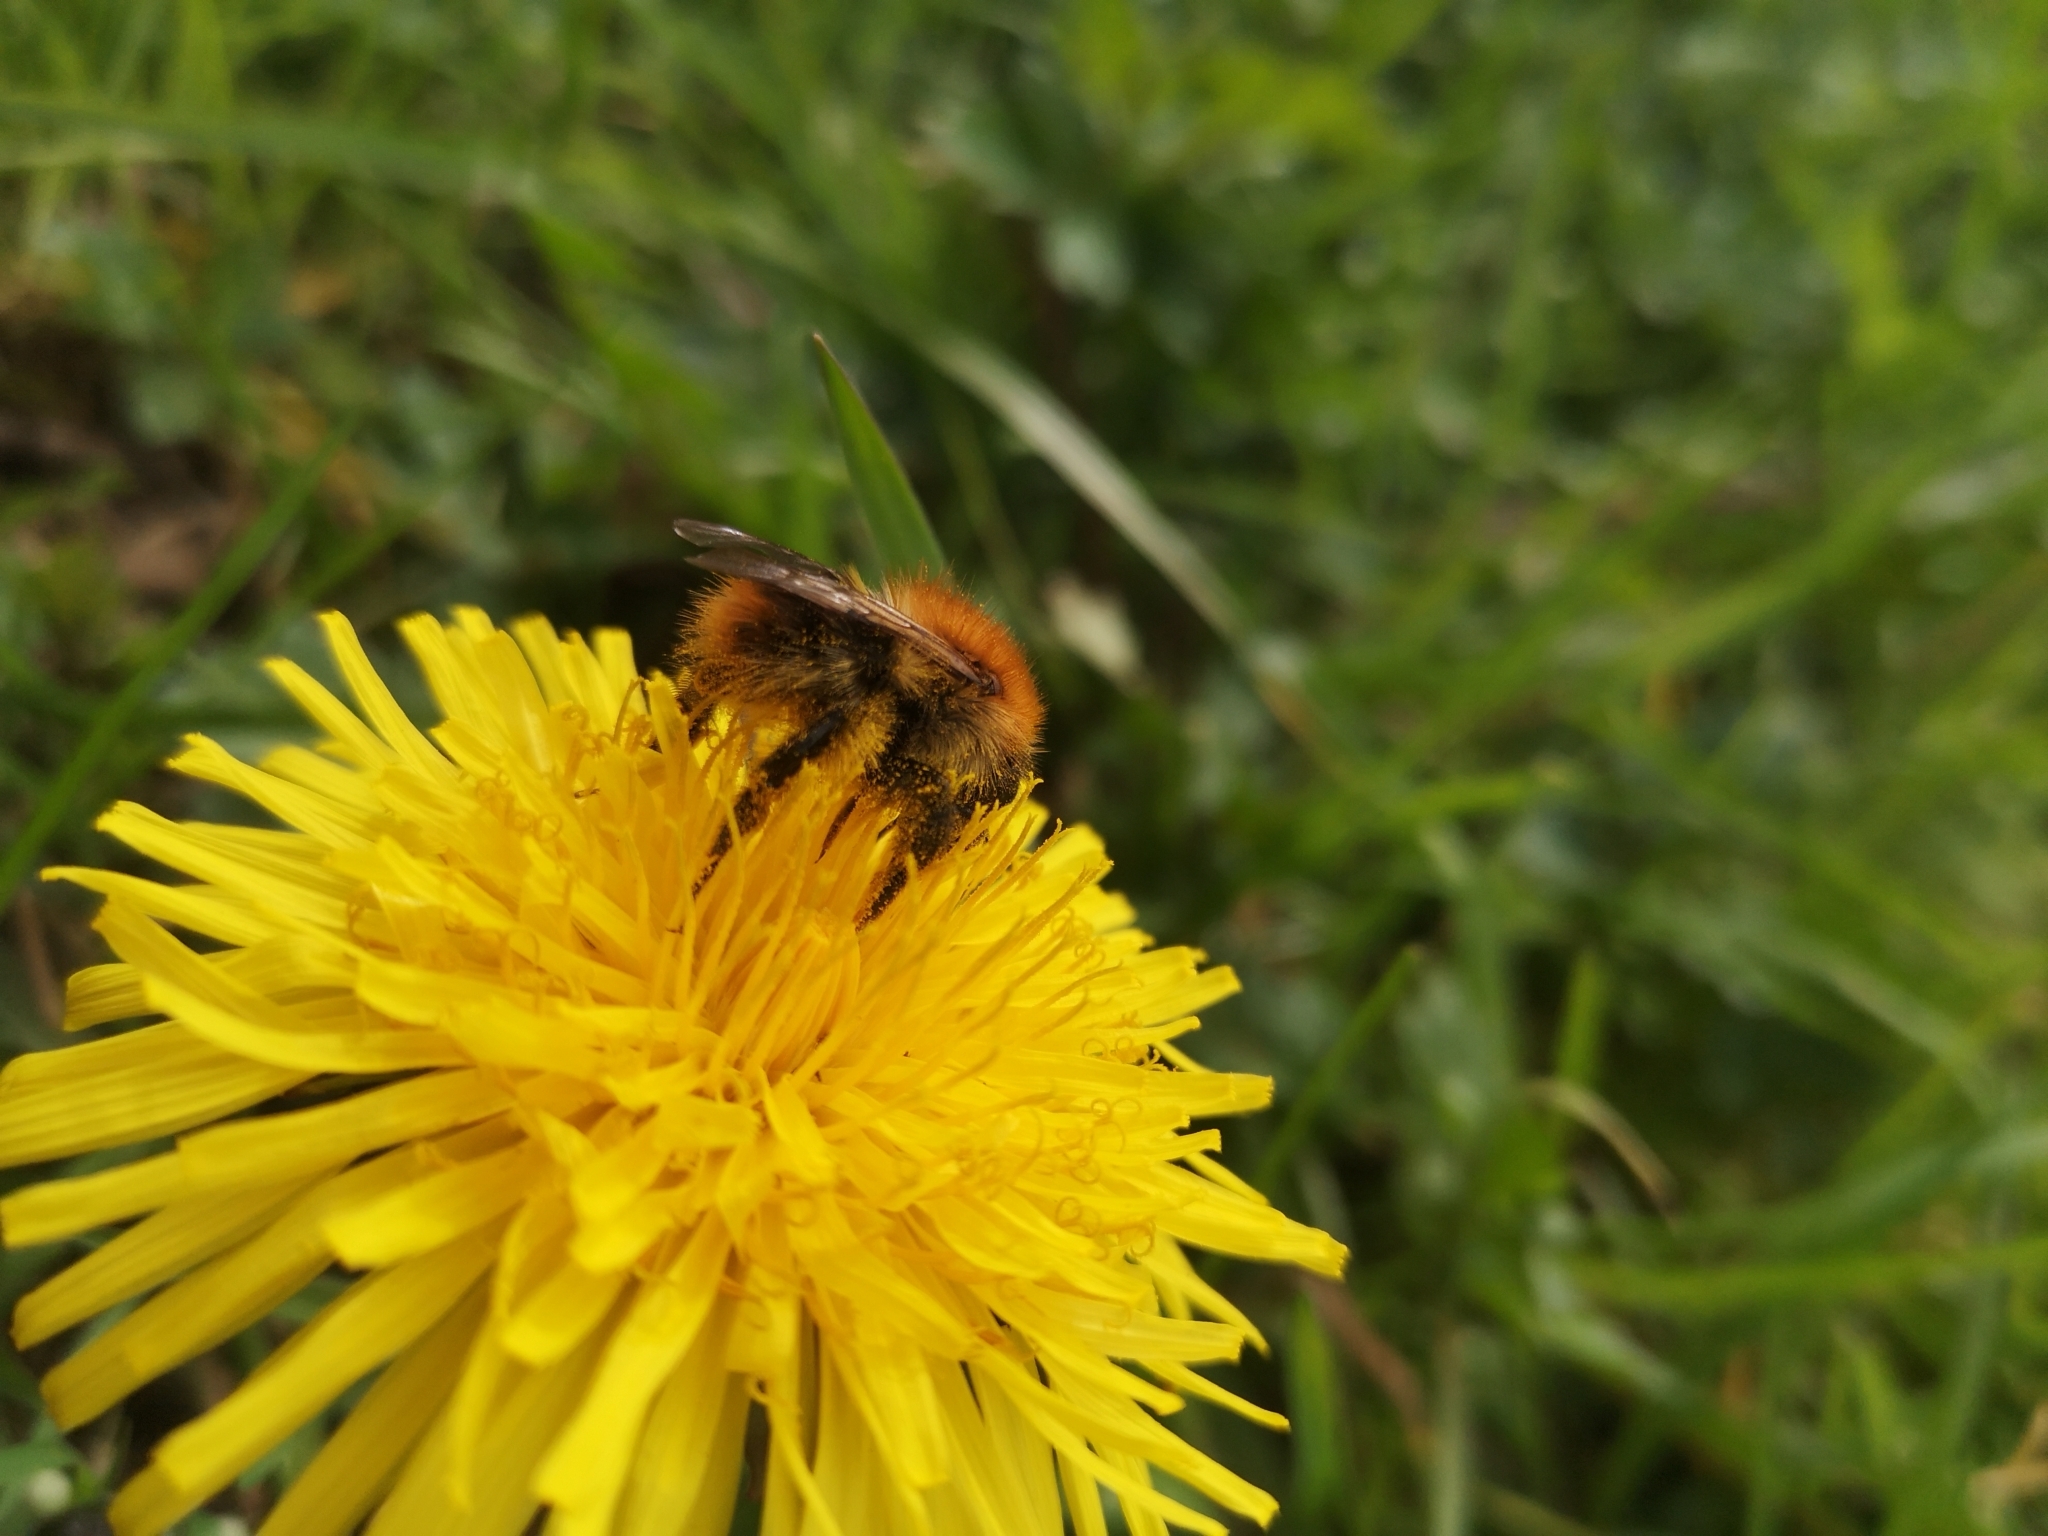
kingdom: Animalia
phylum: Arthropoda
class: Insecta
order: Hymenoptera
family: Apidae
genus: Bombus
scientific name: Bombus pascuorum
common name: Common carder bee
